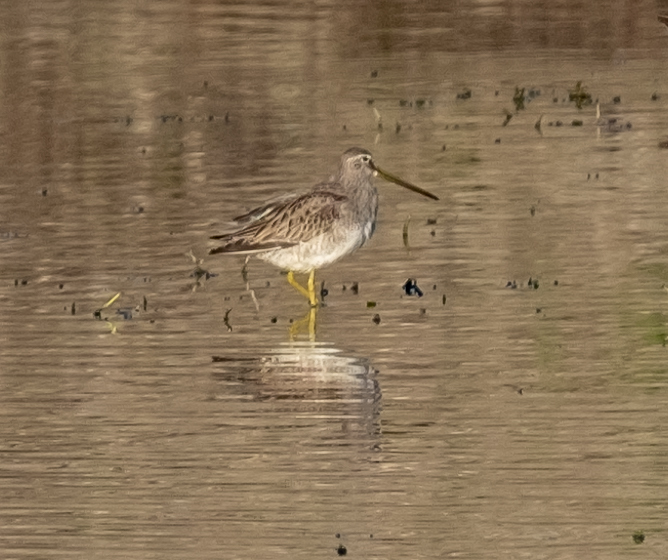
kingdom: Animalia
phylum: Chordata
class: Aves
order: Charadriiformes
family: Scolopacidae
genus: Limnodromus
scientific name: Limnodromus scolopaceus
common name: Long-billed dowitcher
